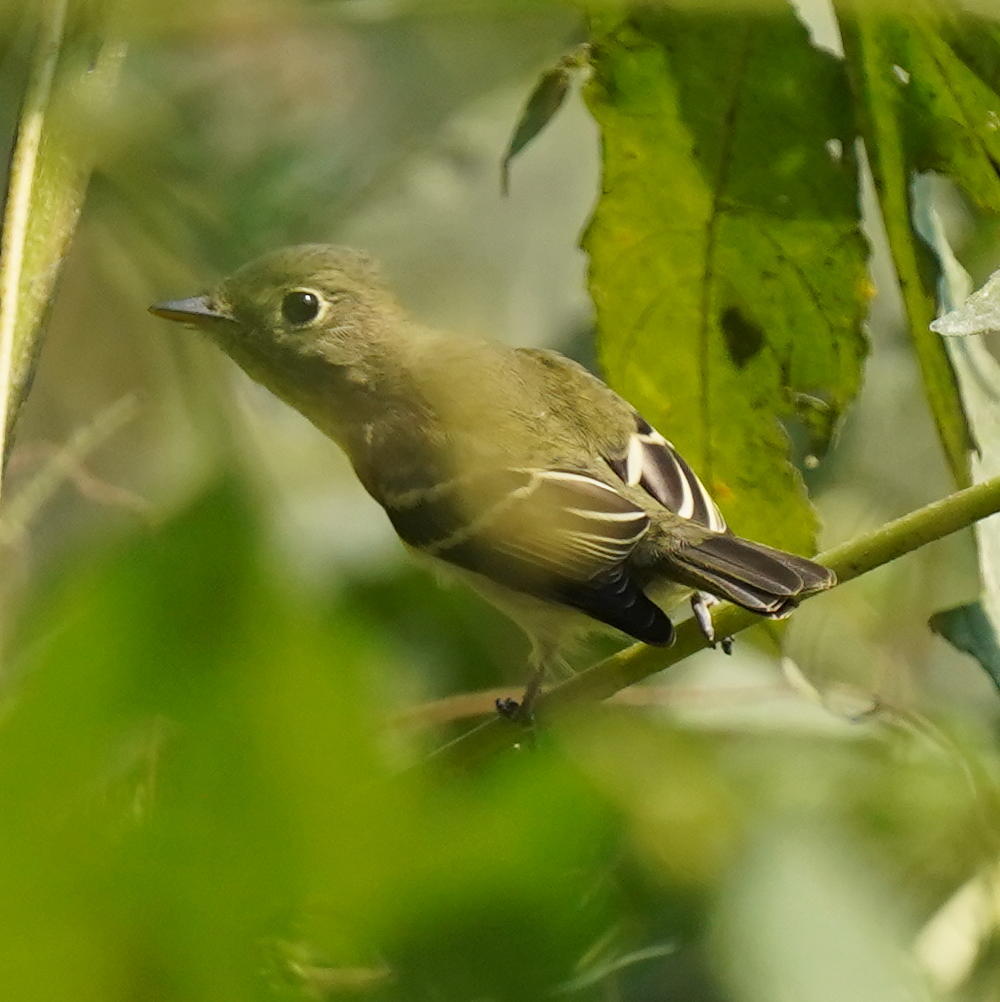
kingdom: Animalia
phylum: Chordata
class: Aves
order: Passeriformes
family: Tyrannidae
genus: Empidonax
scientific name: Empidonax flaviventris
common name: Yellow-bellied flycatcher
